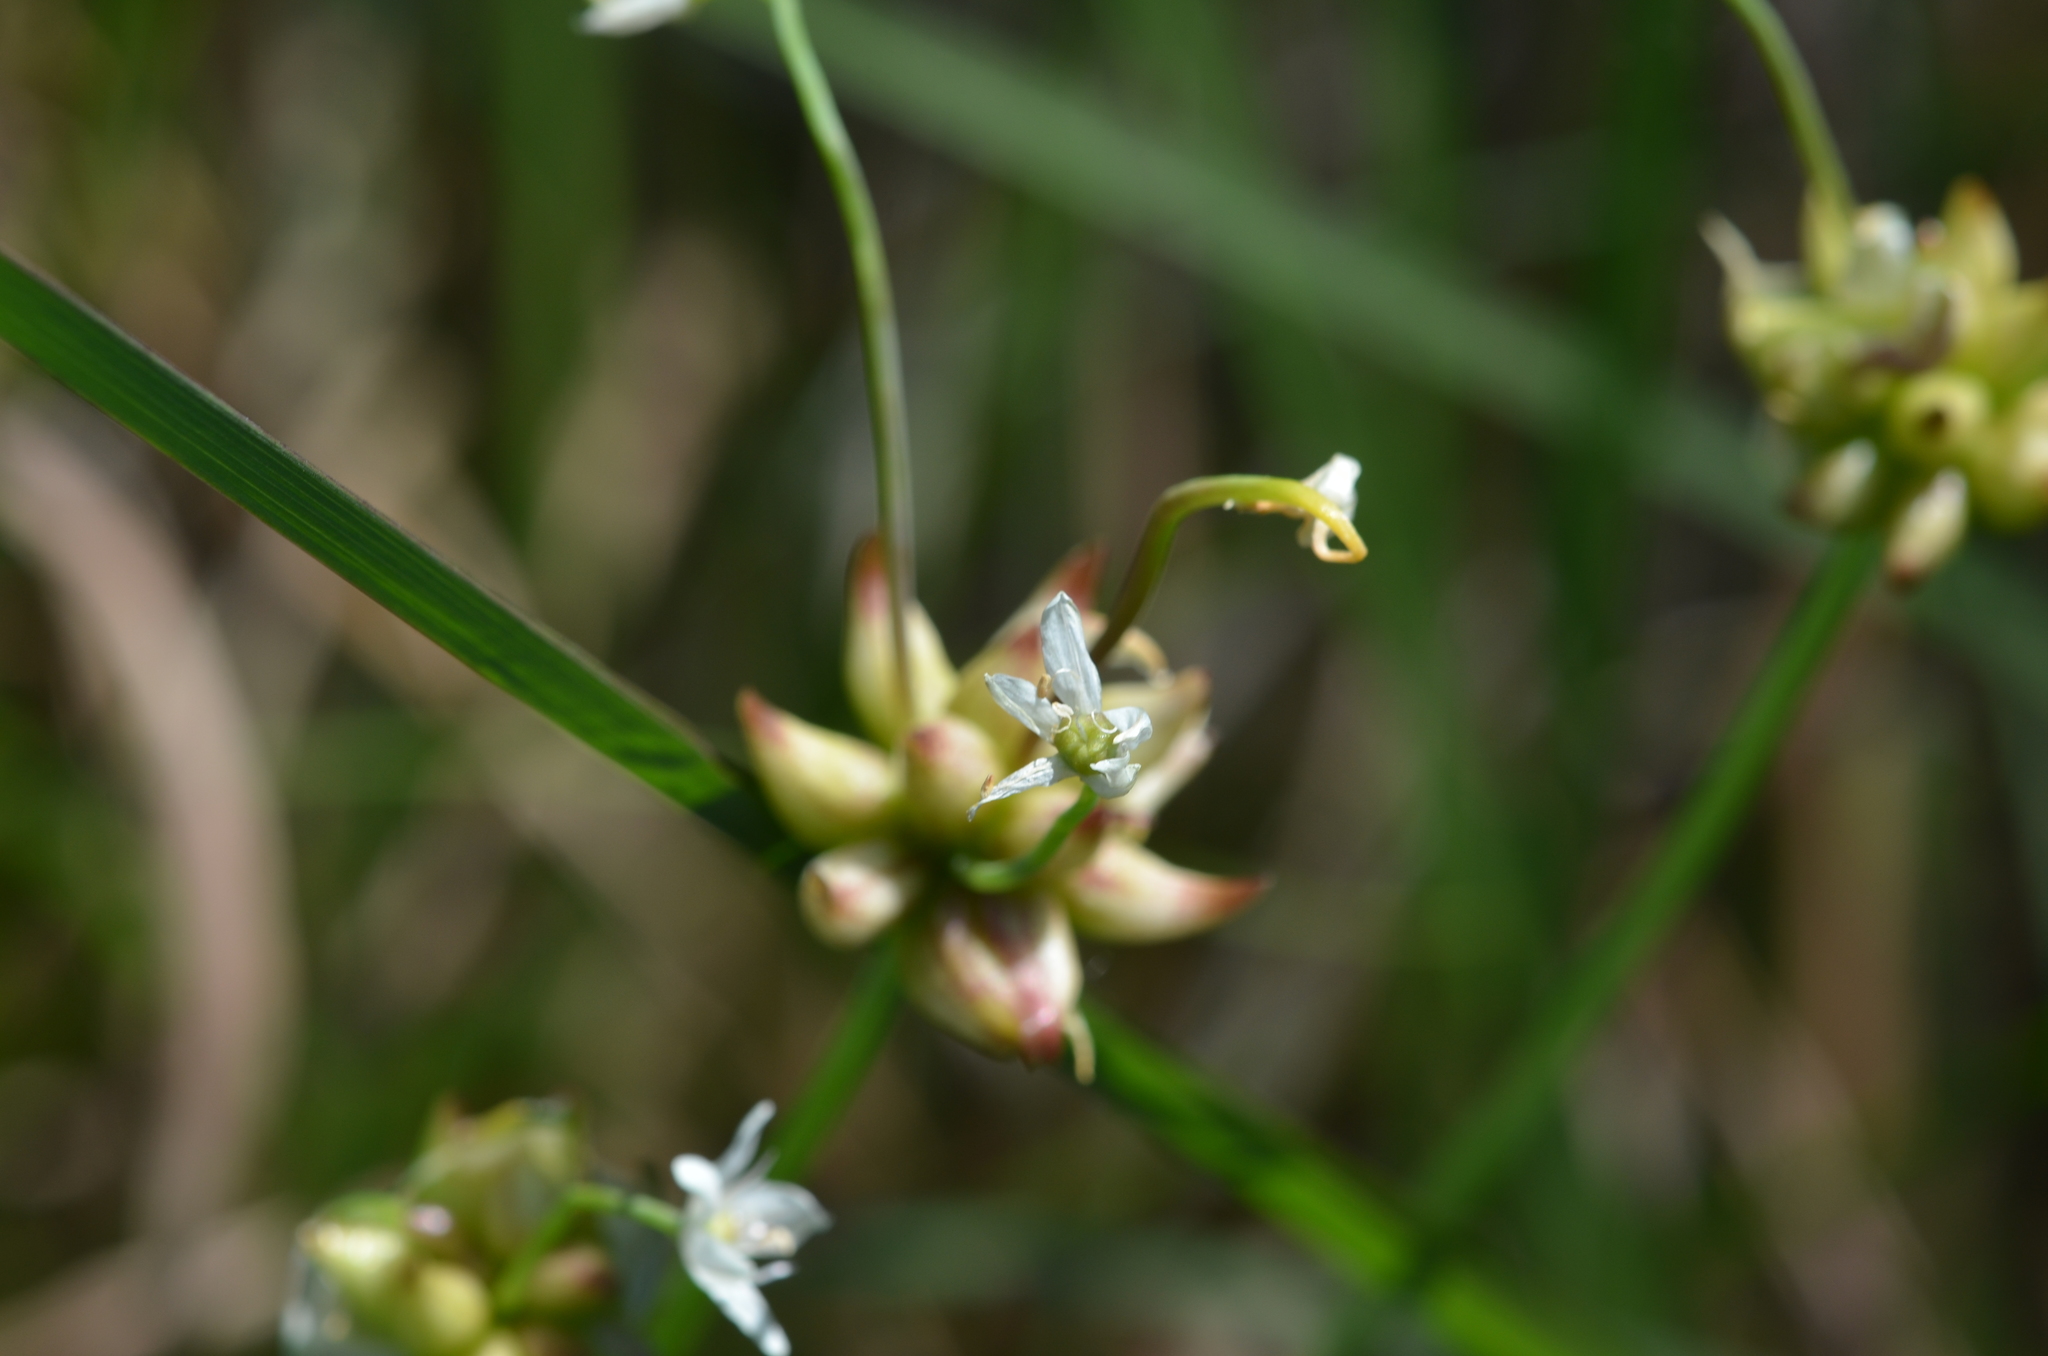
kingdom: Plantae
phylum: Tracheophyta
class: Liliopsida
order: Asparagales
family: Amaryllidaceae
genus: Allium
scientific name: Allium canadense
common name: Meadow garlic
